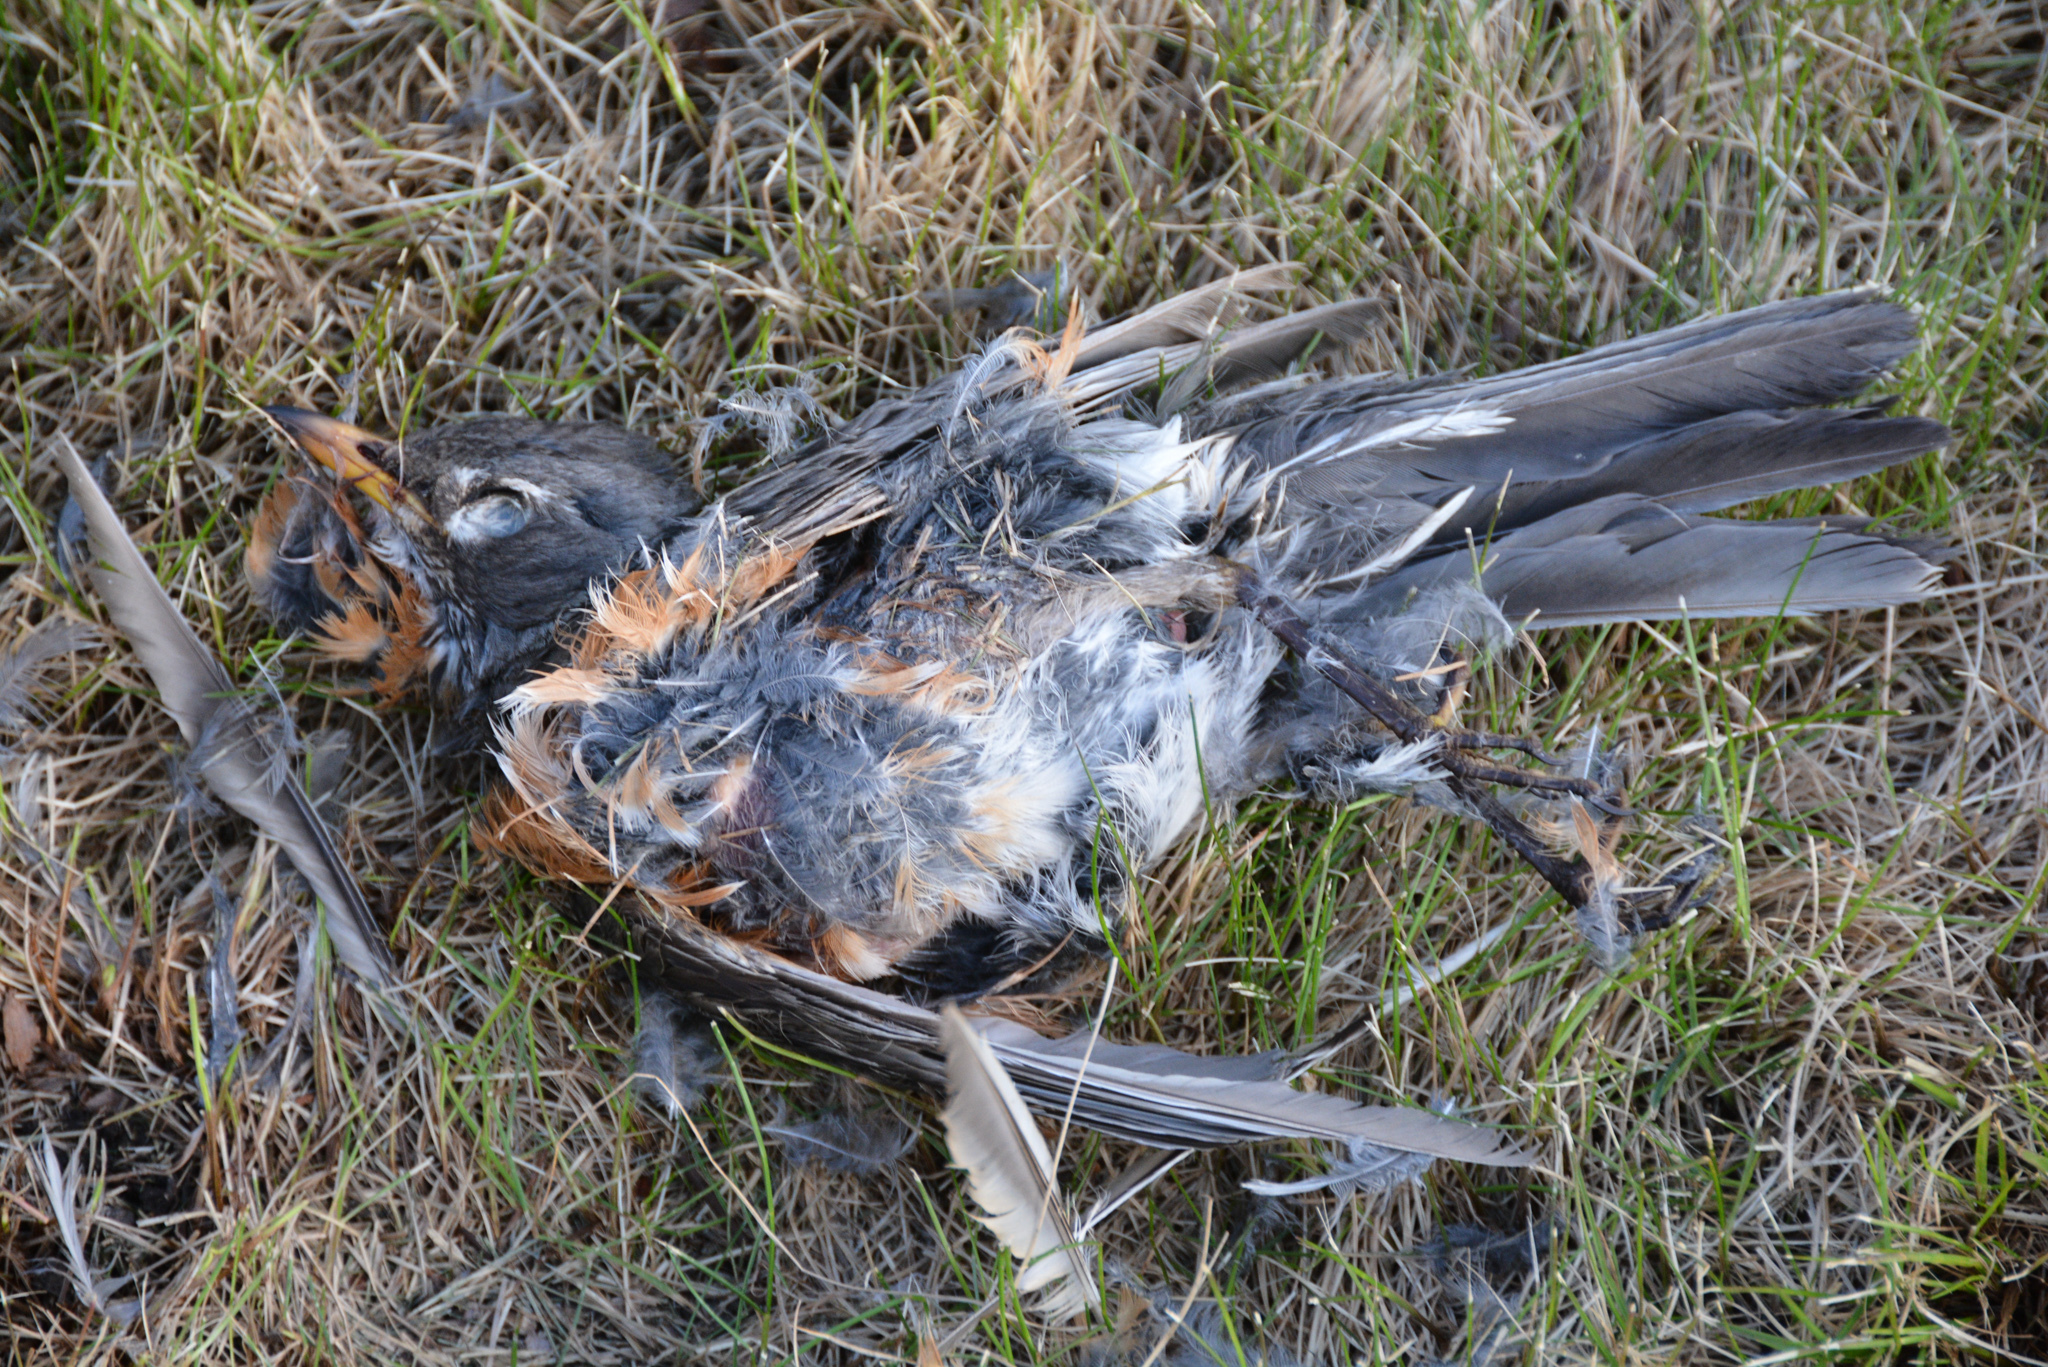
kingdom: Animalia
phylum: Chordata
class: Aves
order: Passeriformes
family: Turdidae
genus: Turdus
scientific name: Turdus migratorius
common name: American robin
